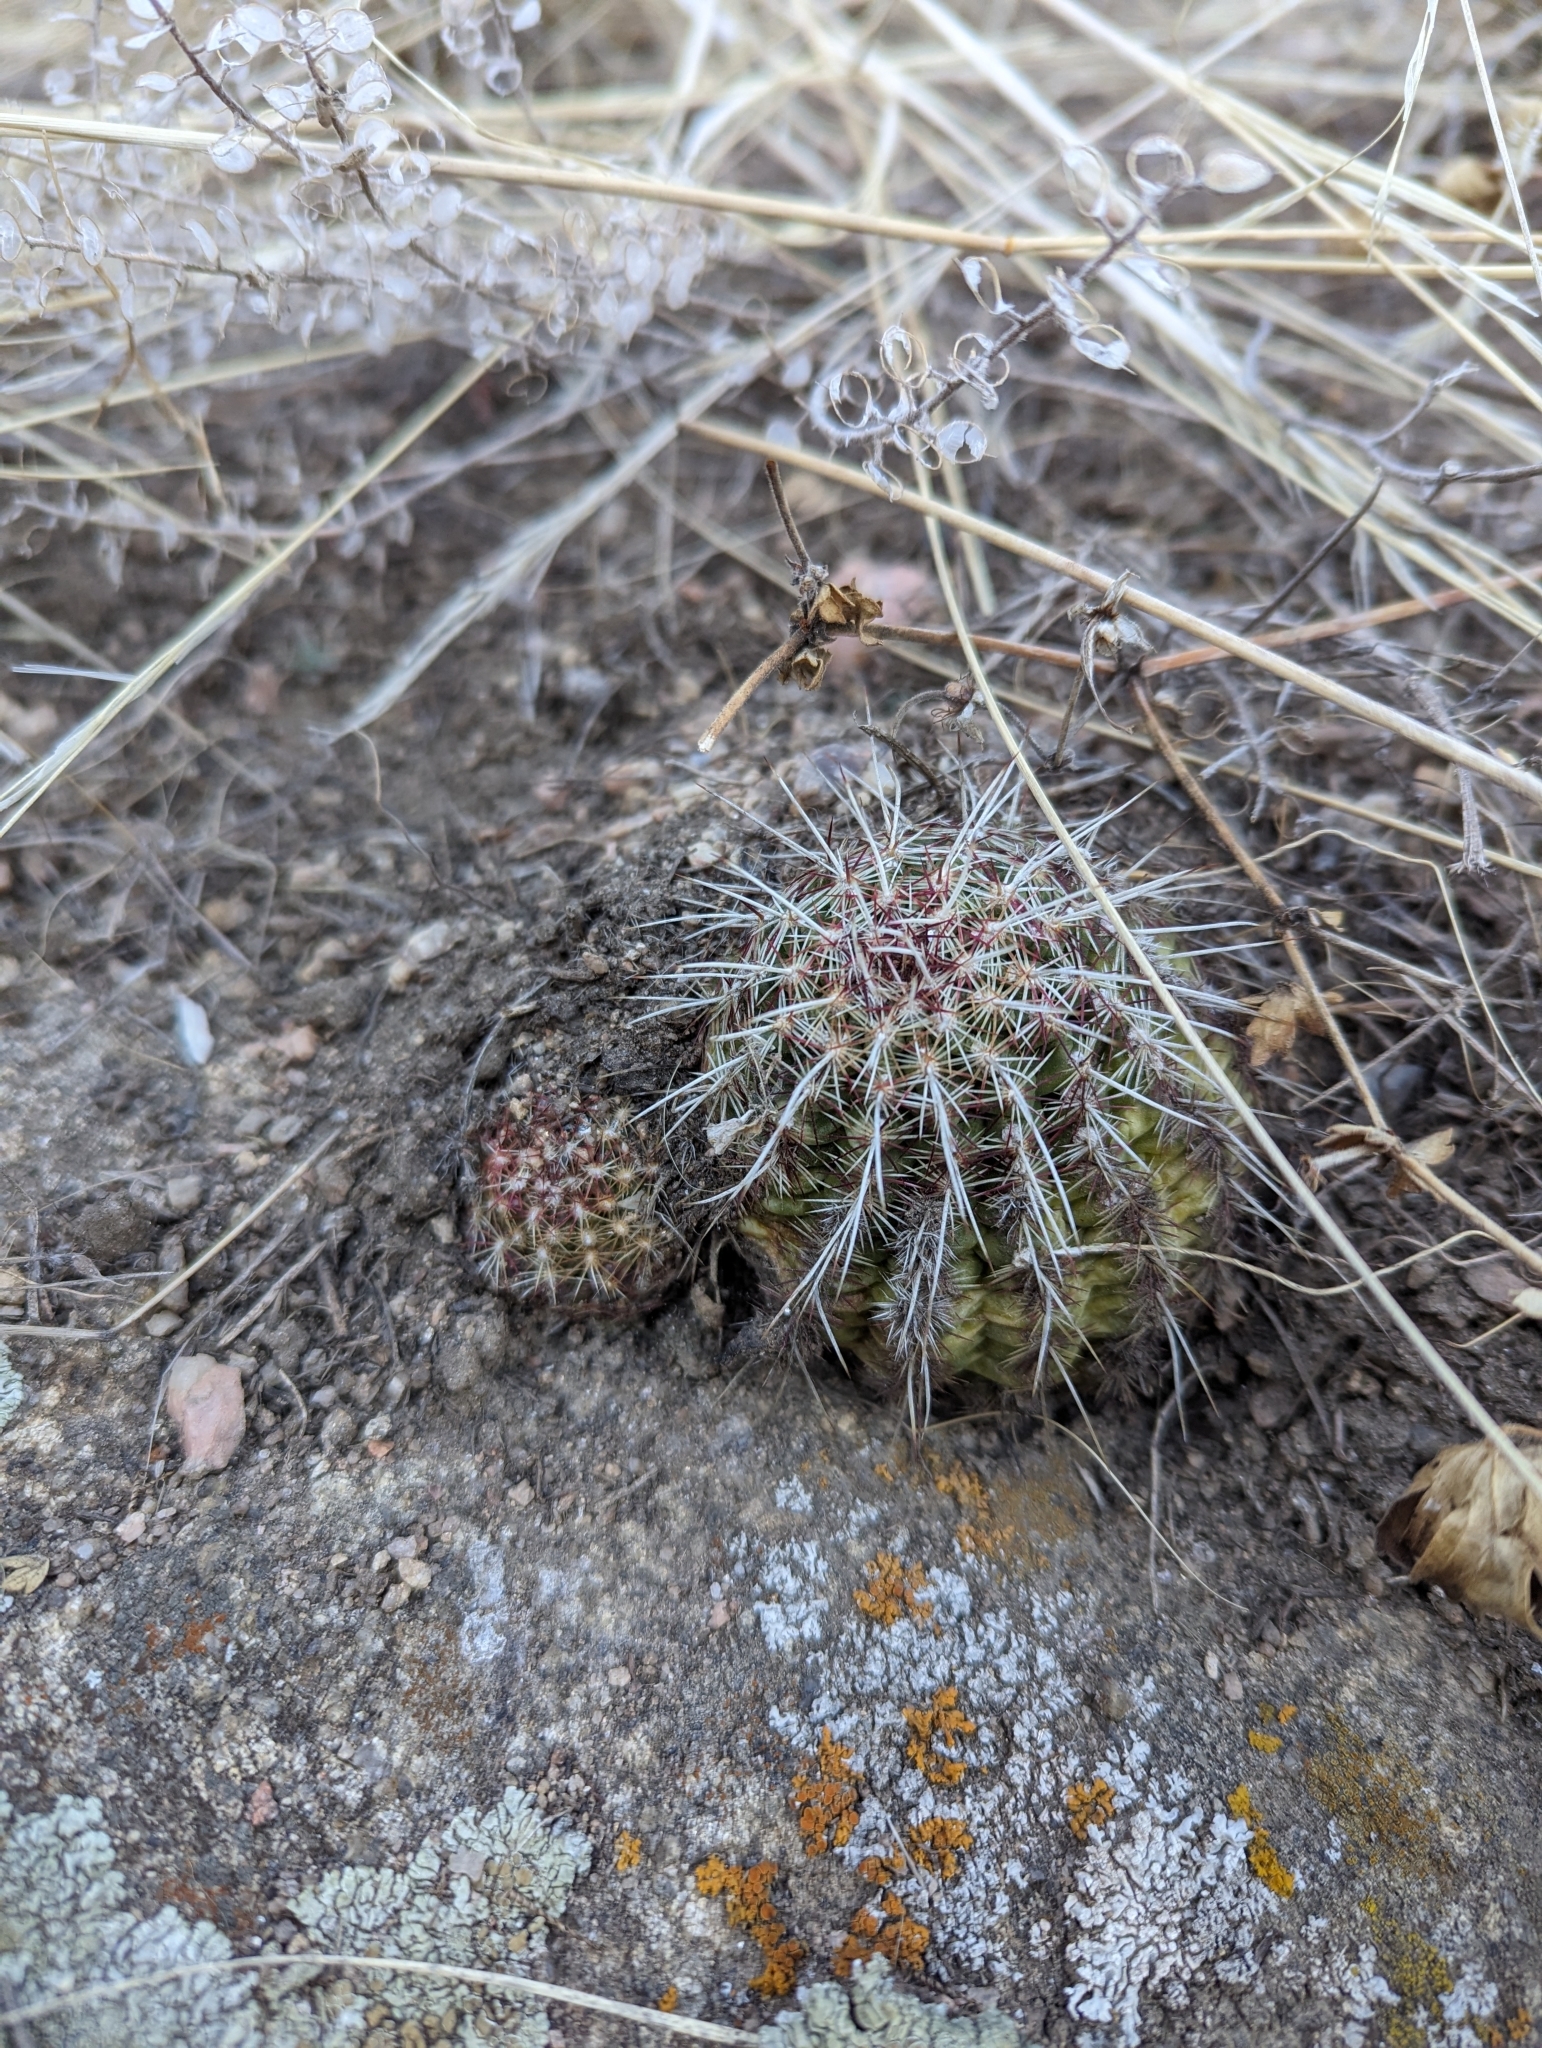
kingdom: Plantae
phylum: Tracheophyta
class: Magnoliopsida
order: Caryophyllales
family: Cactaceae
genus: Echinocereus
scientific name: Echinocereus viridiflorus
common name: Nylon hedgehog cactus
